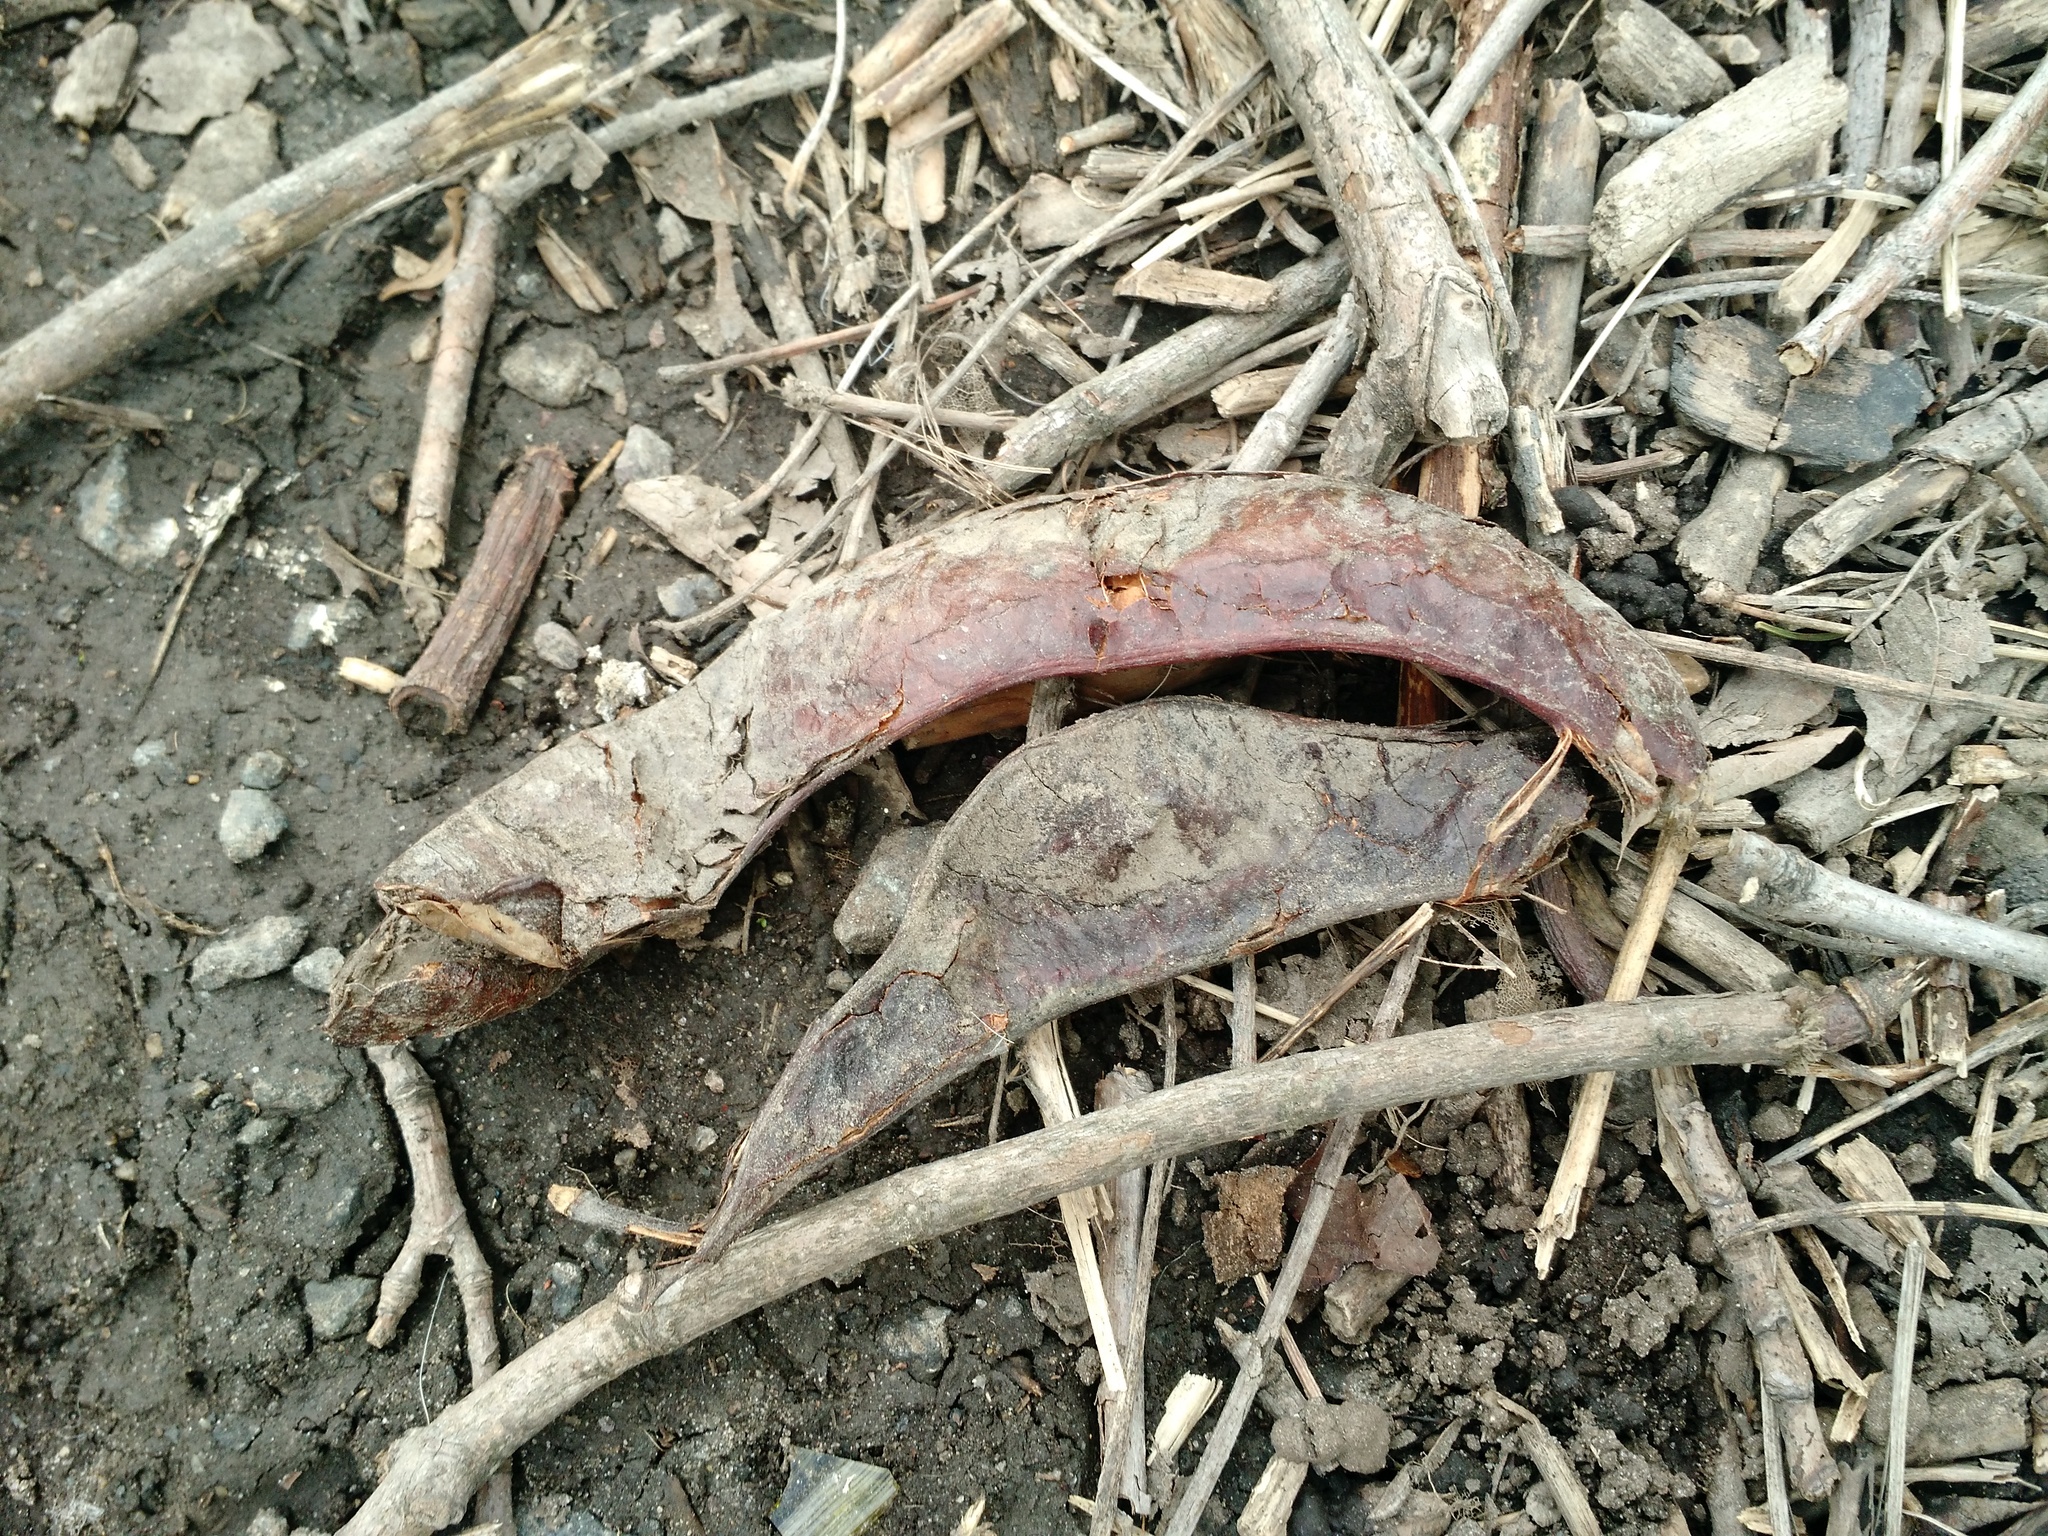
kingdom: Plantae
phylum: Tracheophyta
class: Magnoliopsida
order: Fabales
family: Fabaceae
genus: Gleditsia
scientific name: Gleditsia triacanthos
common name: Common honeylocust
